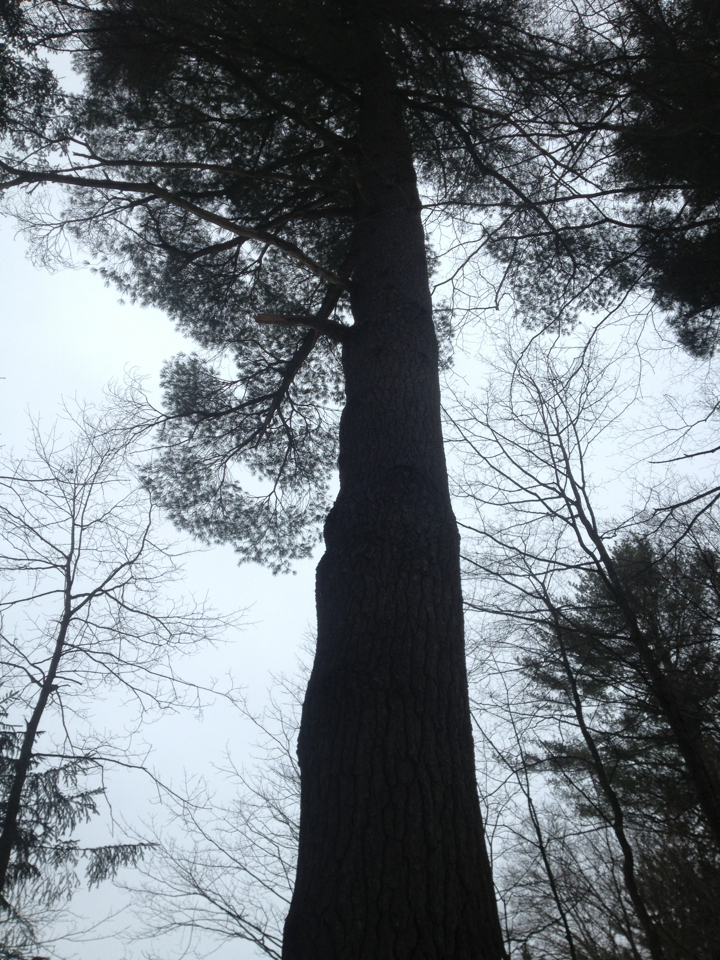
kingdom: Plantae
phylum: Tracheophyta
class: Pinopsida
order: Pinales
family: Pinaceae
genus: Pinus
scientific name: Pinus strobus
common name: Weymouth pine
